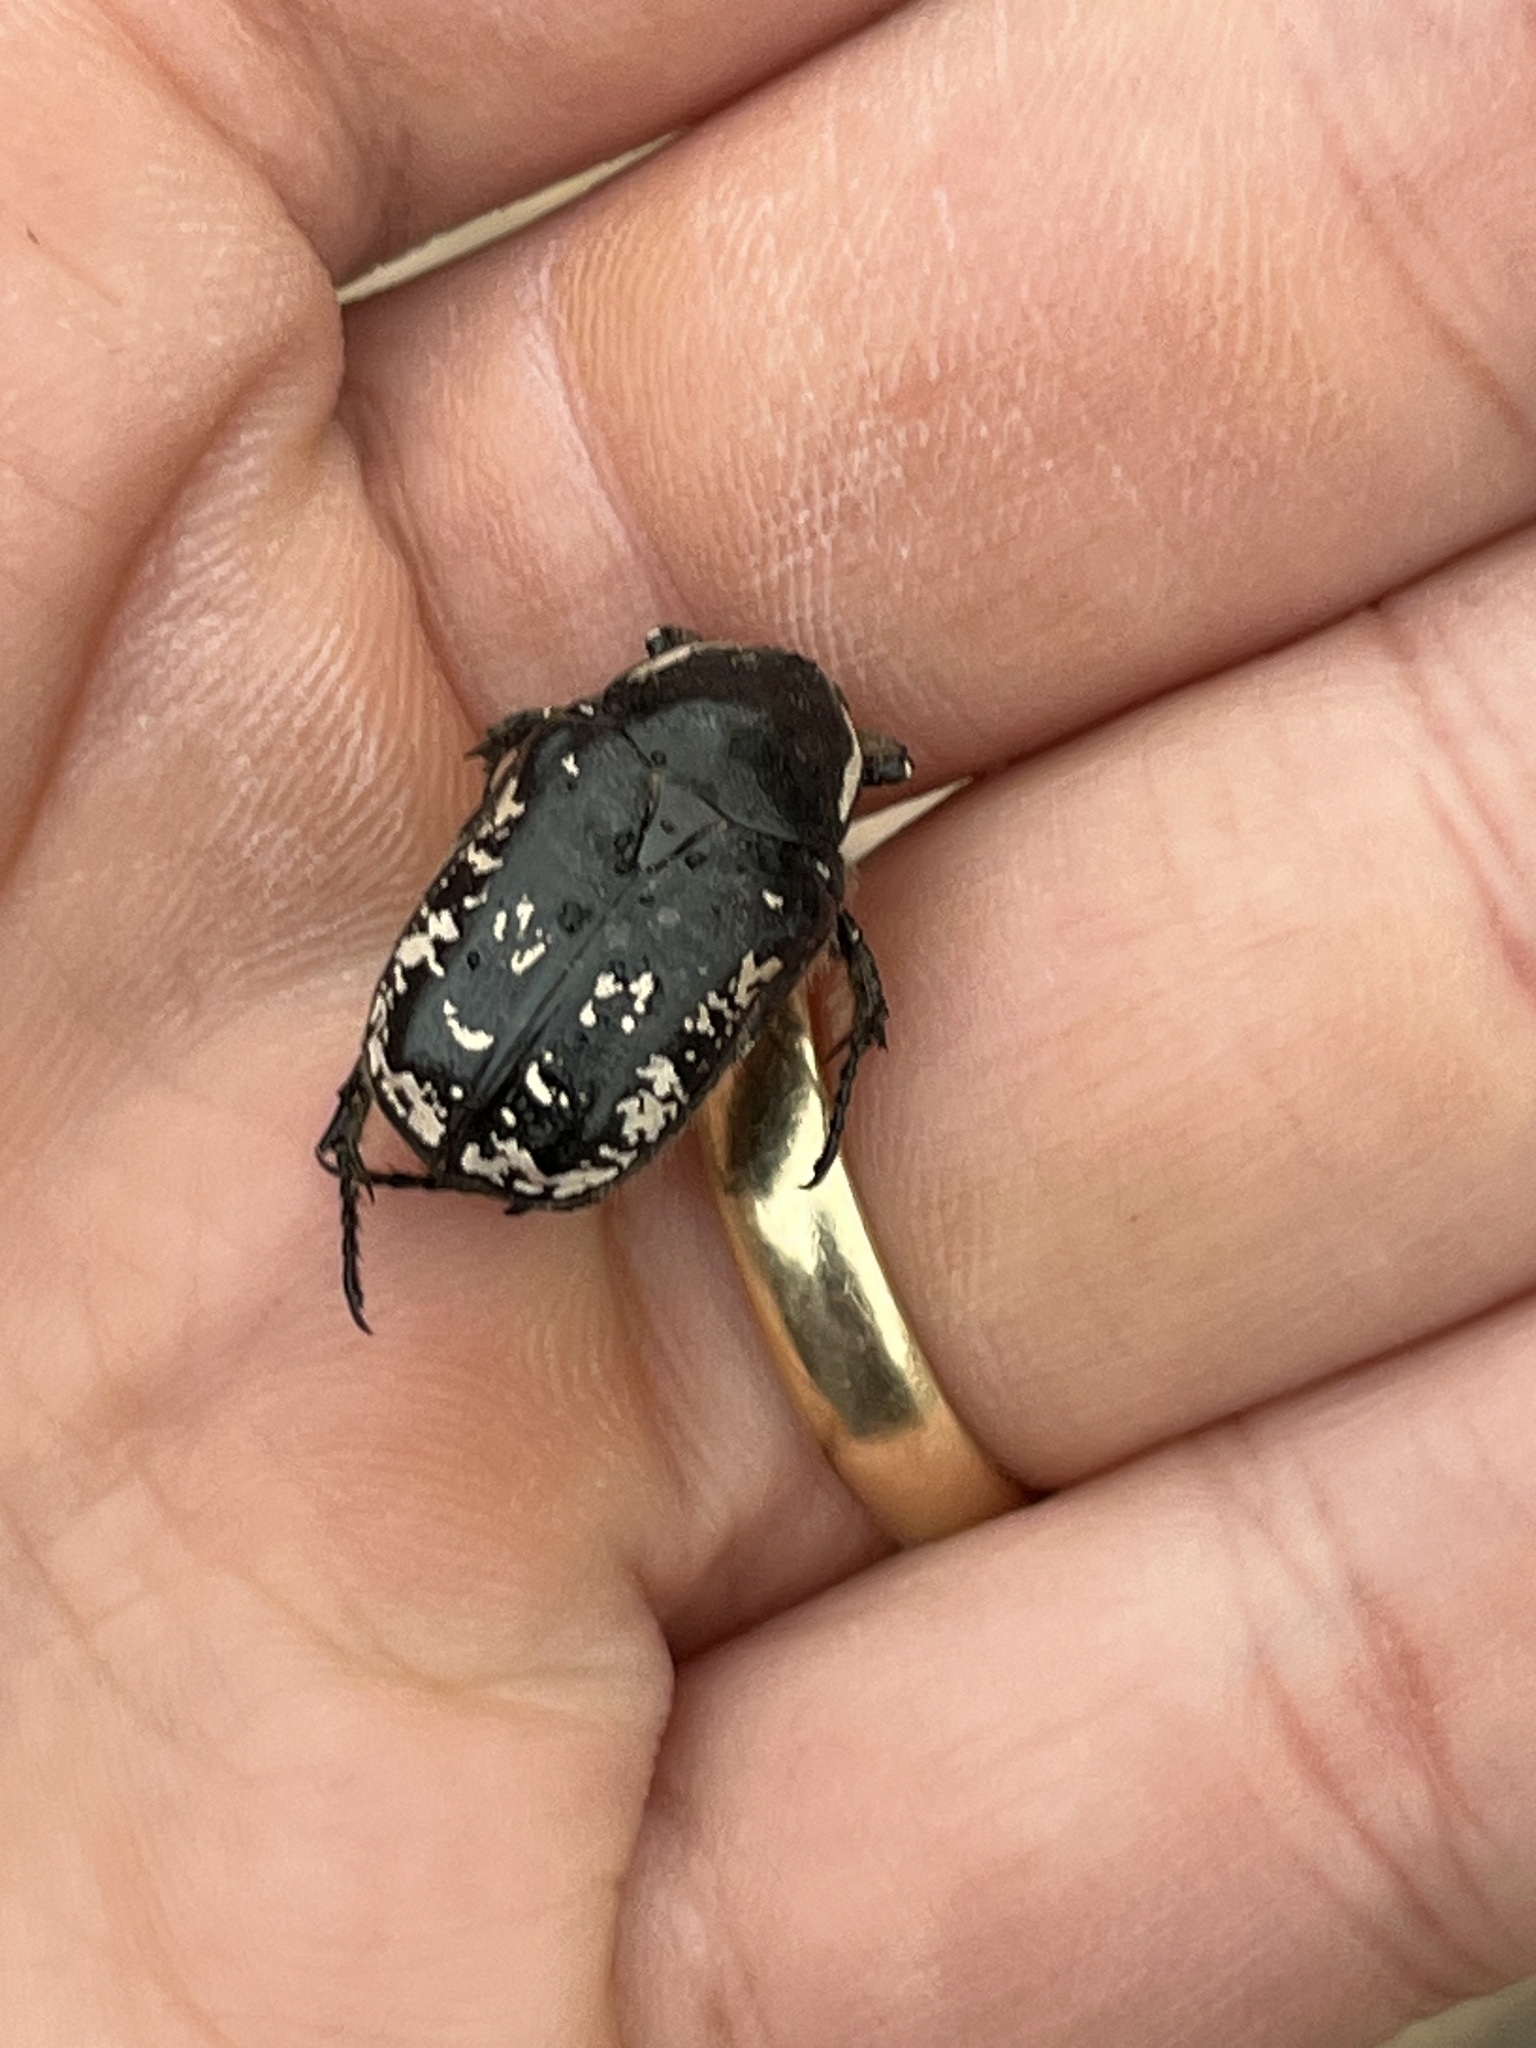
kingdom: Animalia
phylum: Arthropoda
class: Insecta
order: Coleoptera
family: Scarabaeidae
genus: Aethiessa
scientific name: Aethiessa mesopotamica
